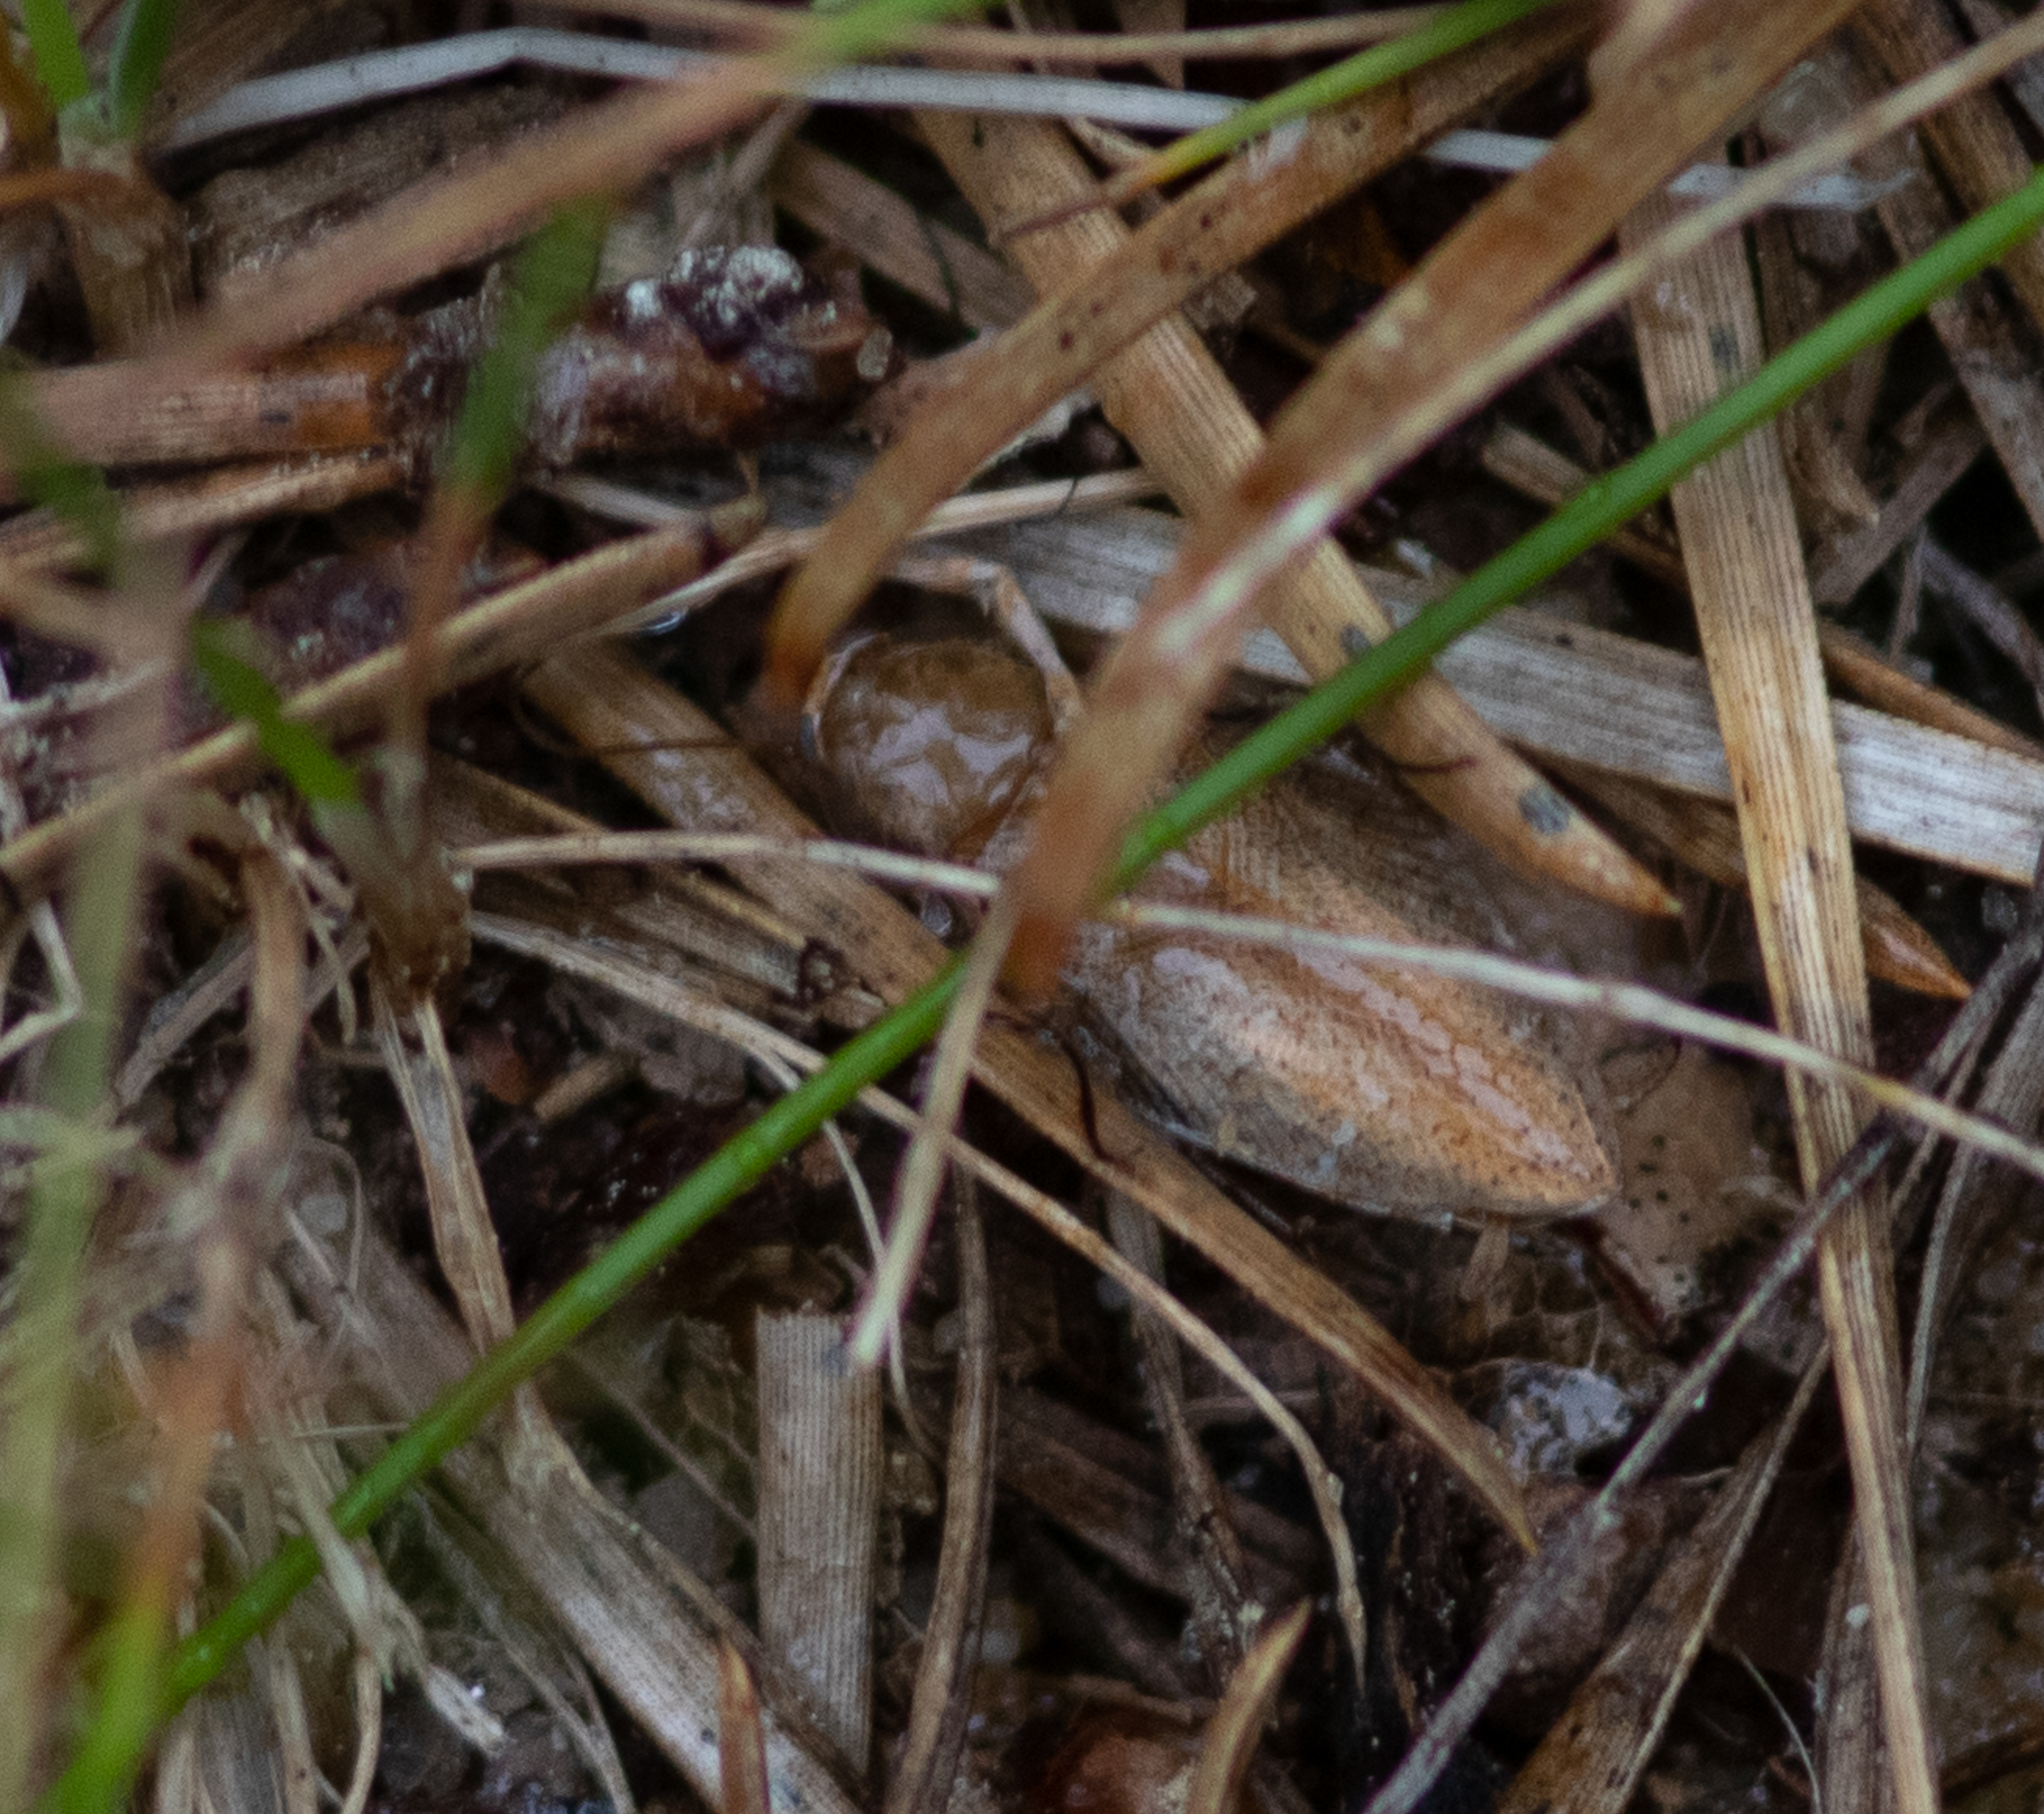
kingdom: Animalia
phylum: Arthropoda
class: Insecta
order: Blattodea
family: Ectobiidae
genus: Ectobius
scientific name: Ectobius pallidus
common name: Tawny cockroach
